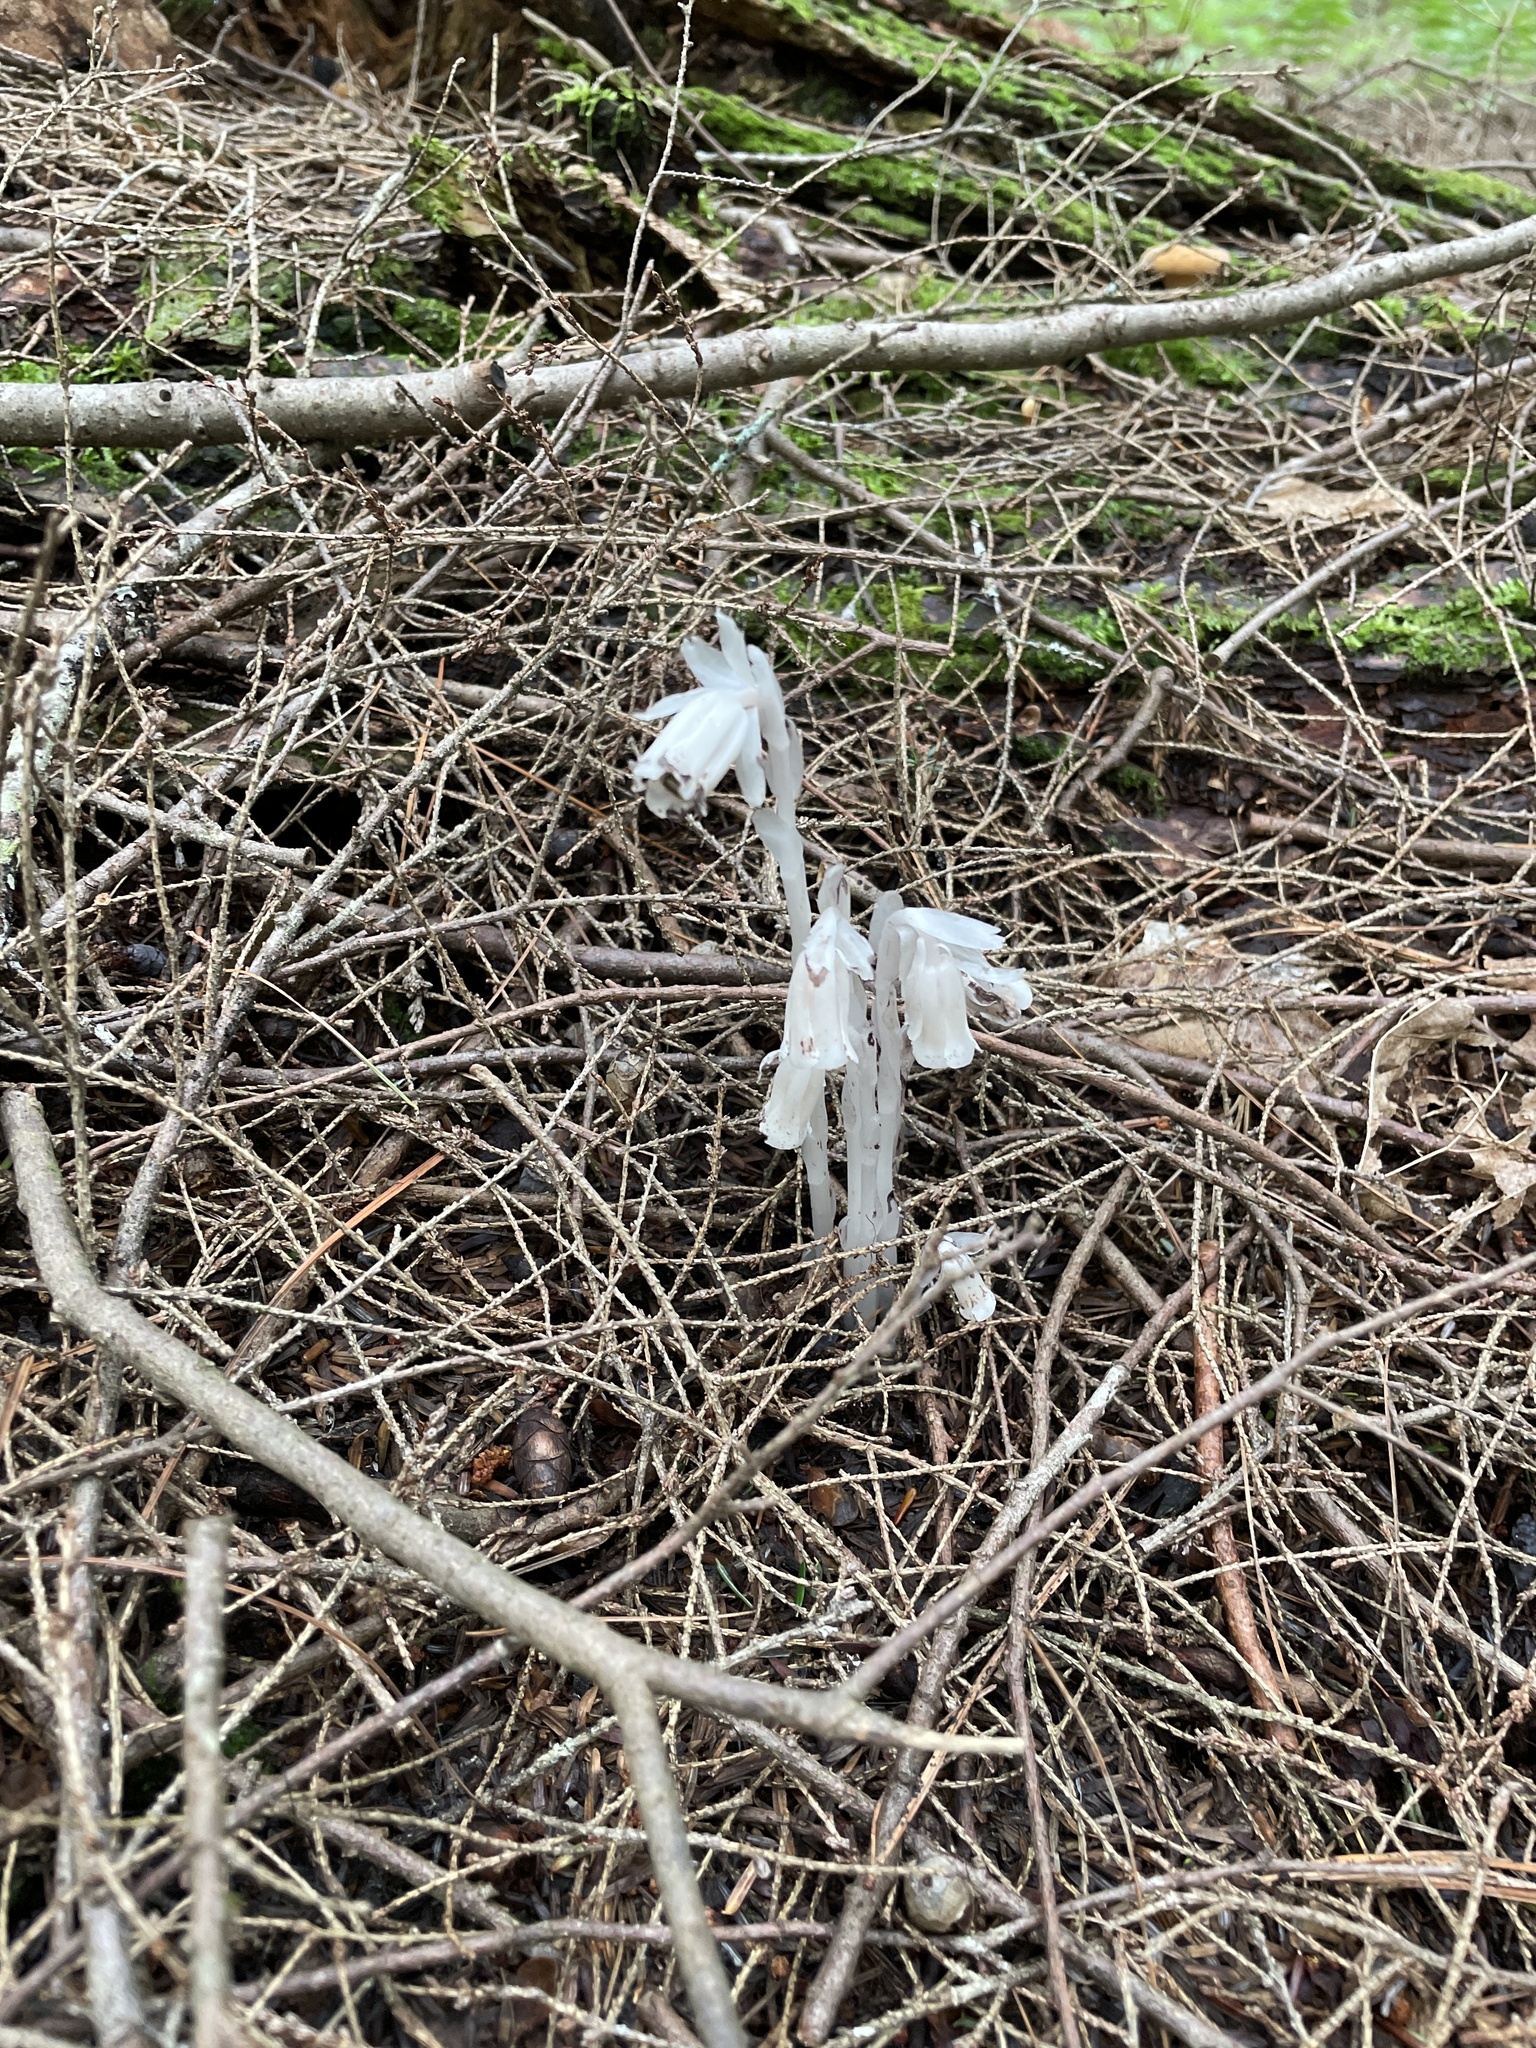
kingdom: Plantae
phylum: Tracheophyta
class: Magnoliopsida
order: Ericales
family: Ericaceae
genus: Monotropa
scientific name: Monotropa uniflora
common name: Convulsion root
